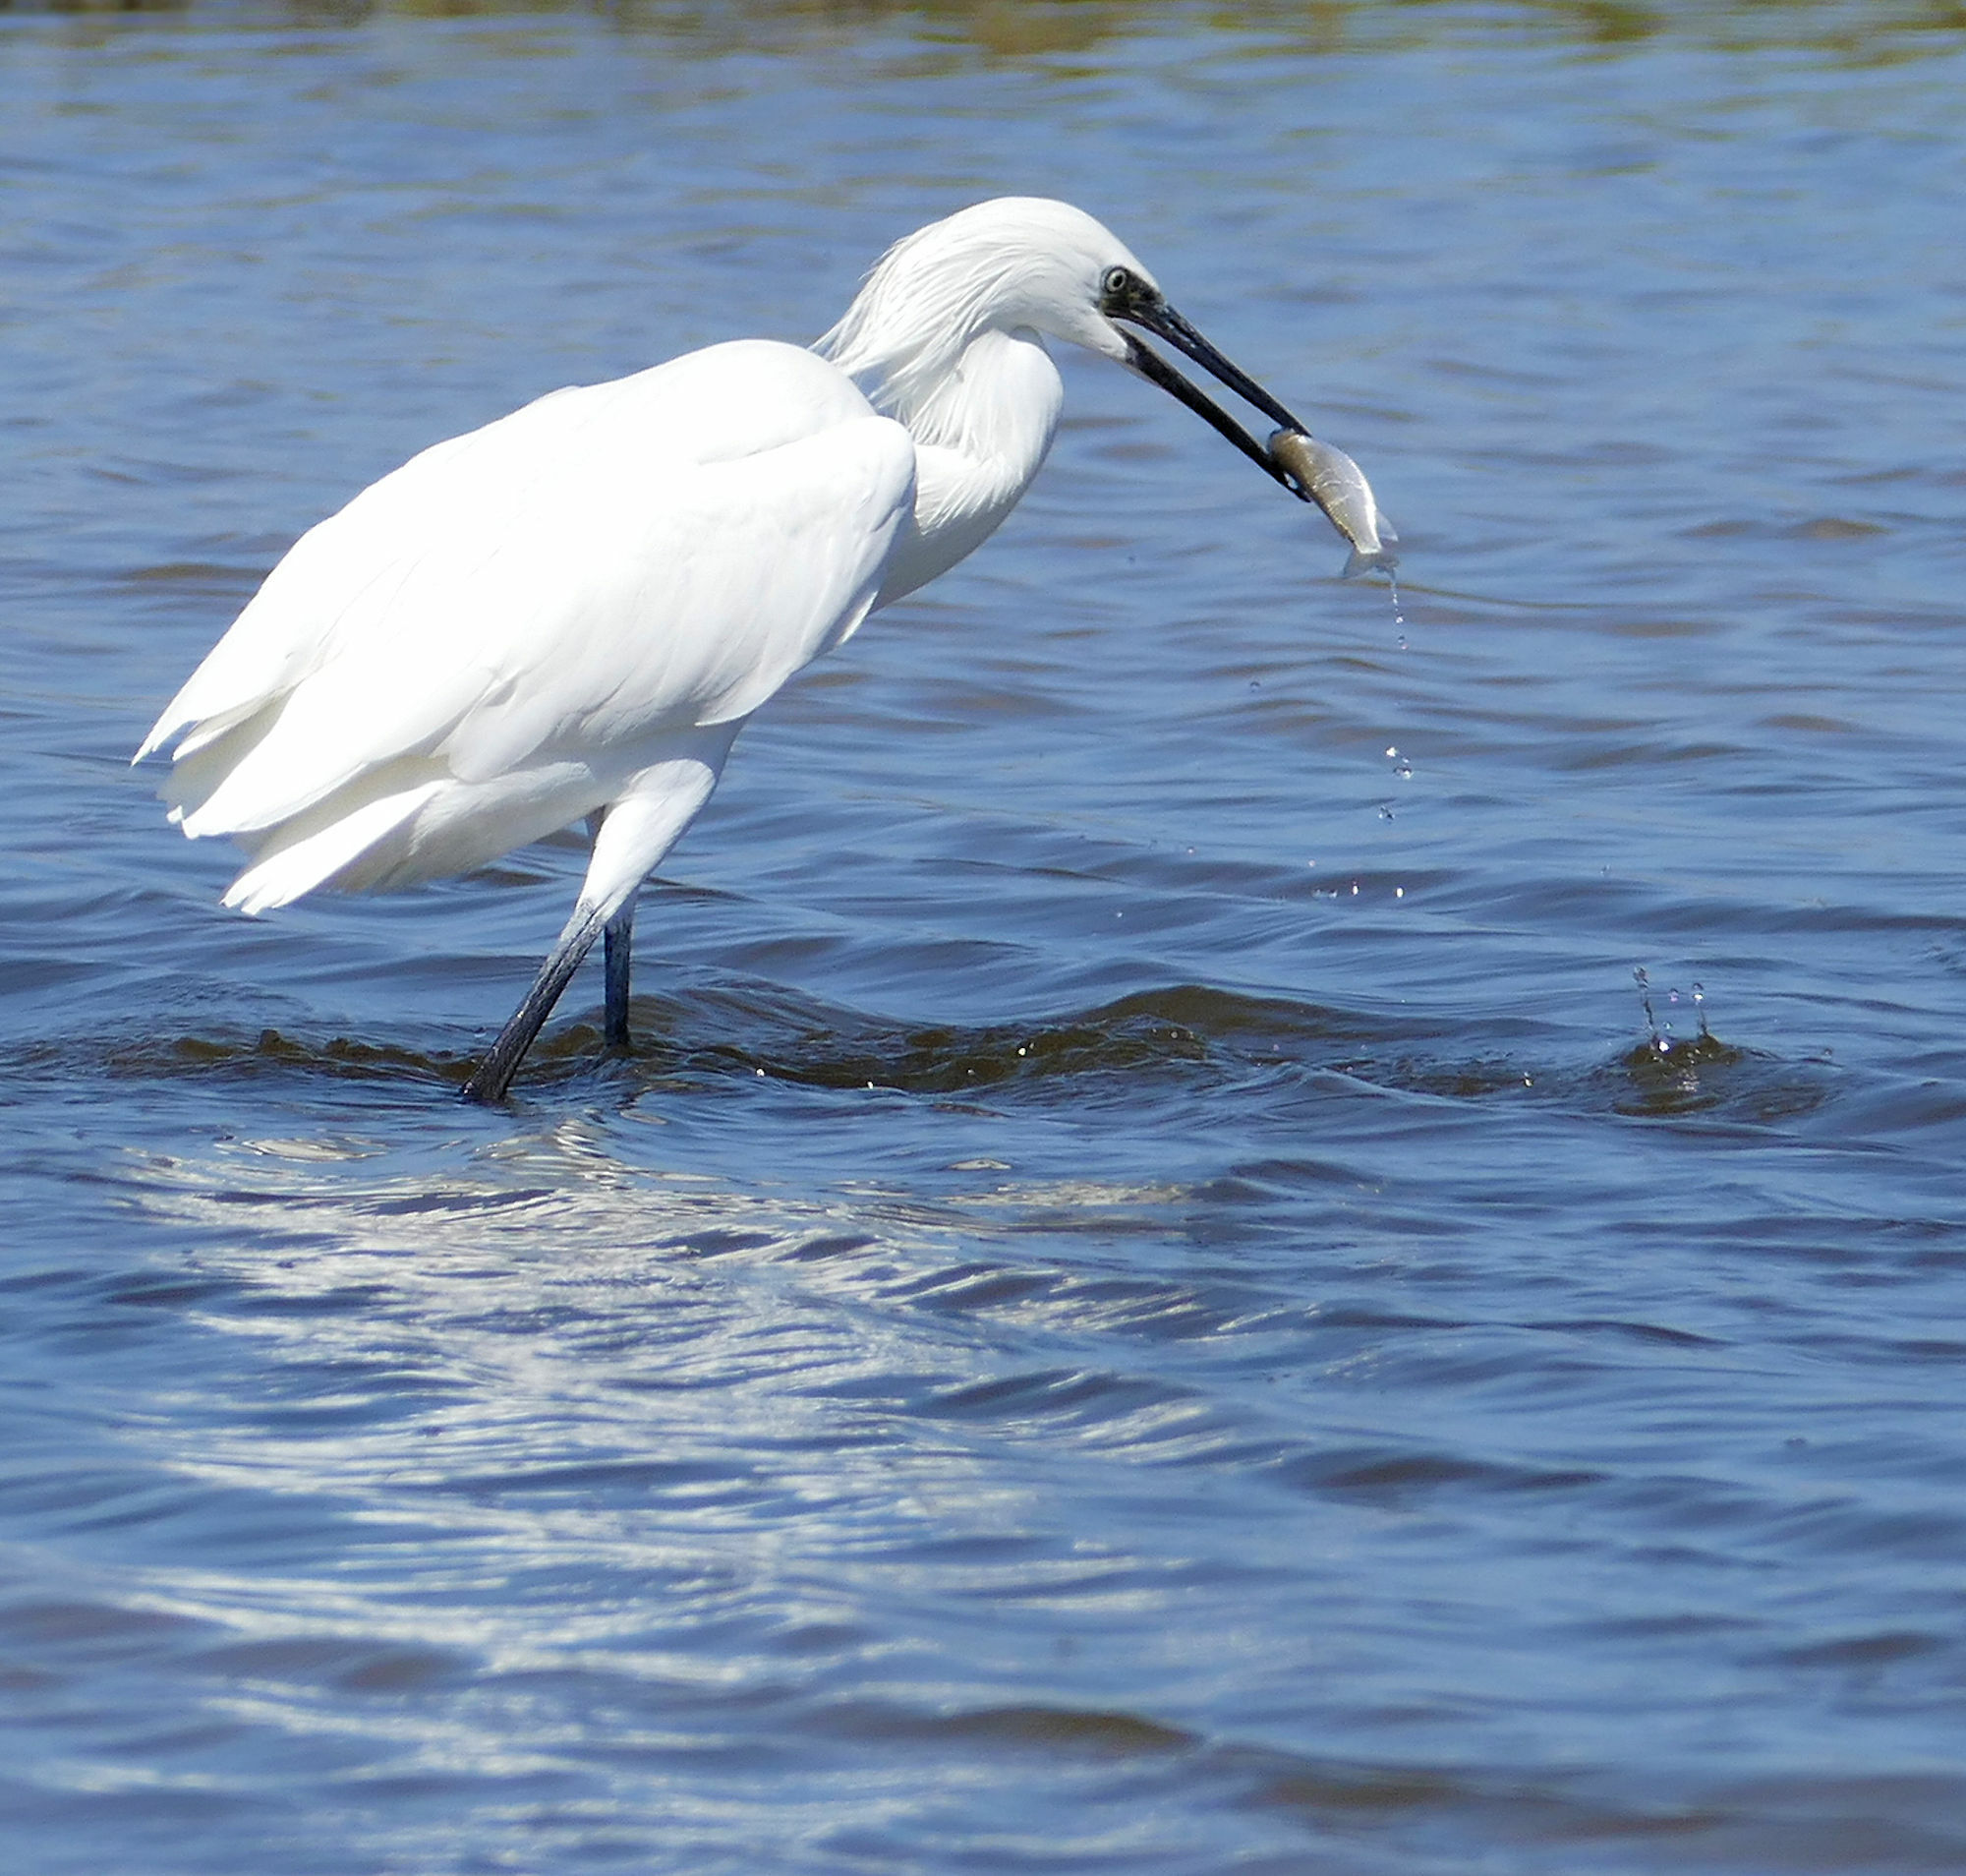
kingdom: Animalia
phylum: Chordata
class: Aves
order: Pelecaniformes
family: Ardeidae
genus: Egretta
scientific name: Egretta rufescens
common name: Reddish egret
